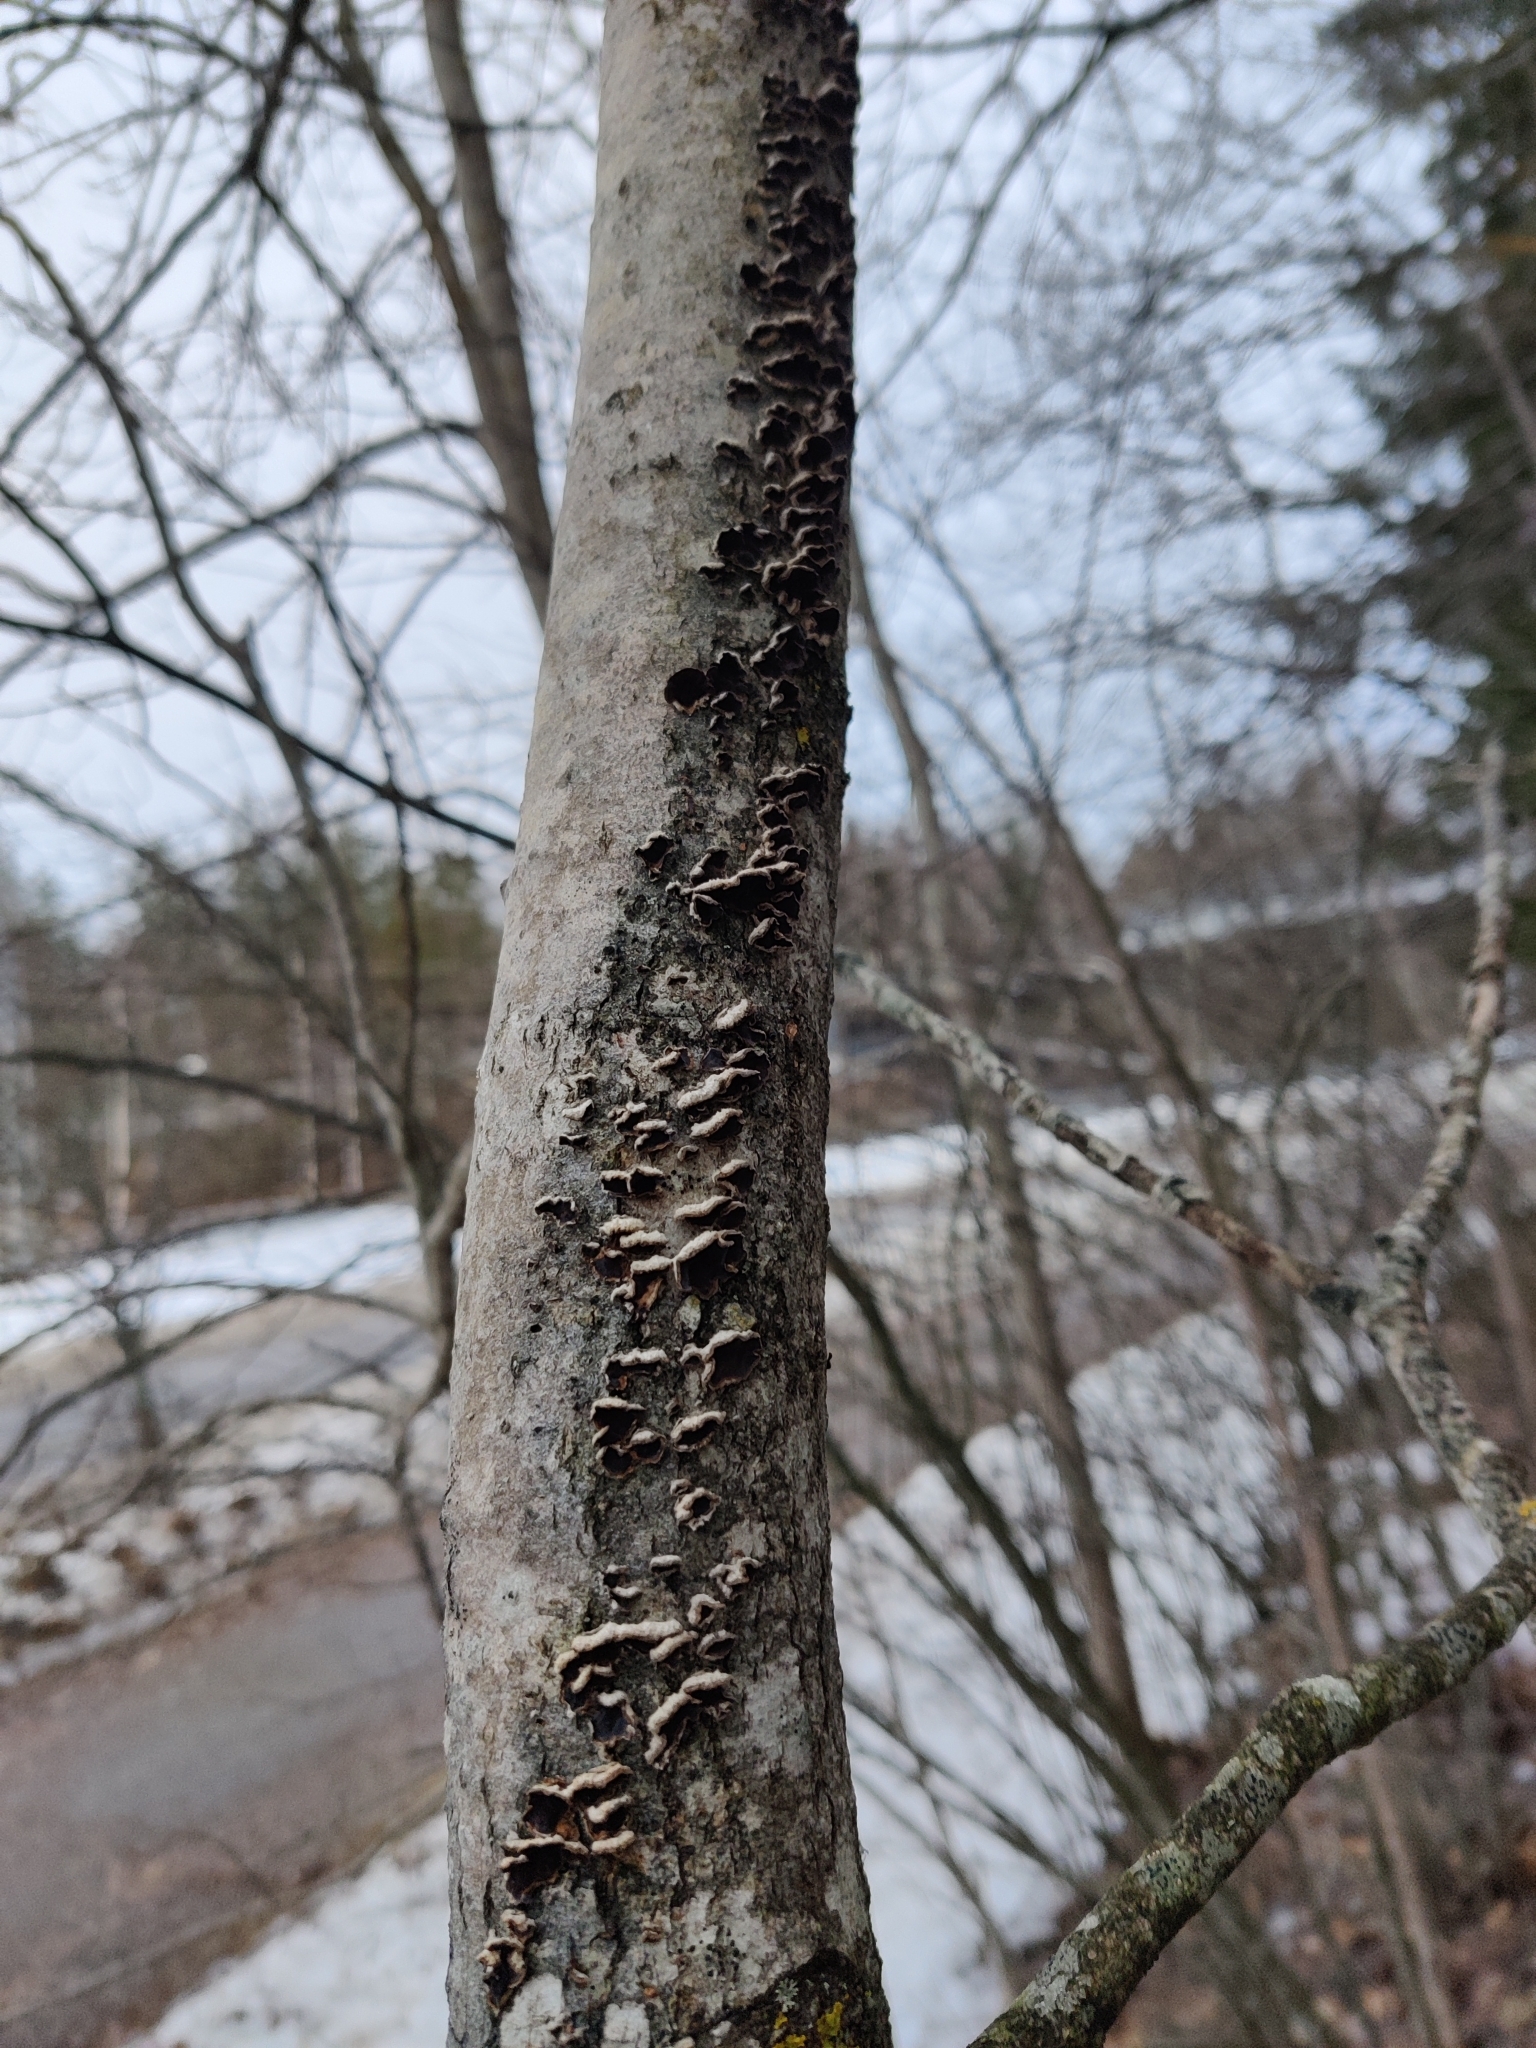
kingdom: Fungi
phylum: Basidiomycota
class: Agaricomycetes
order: Agaricales
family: Cyphellaceae
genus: Chondrostereum
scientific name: Chondrostereum purpureum
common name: Silver leaf disease
